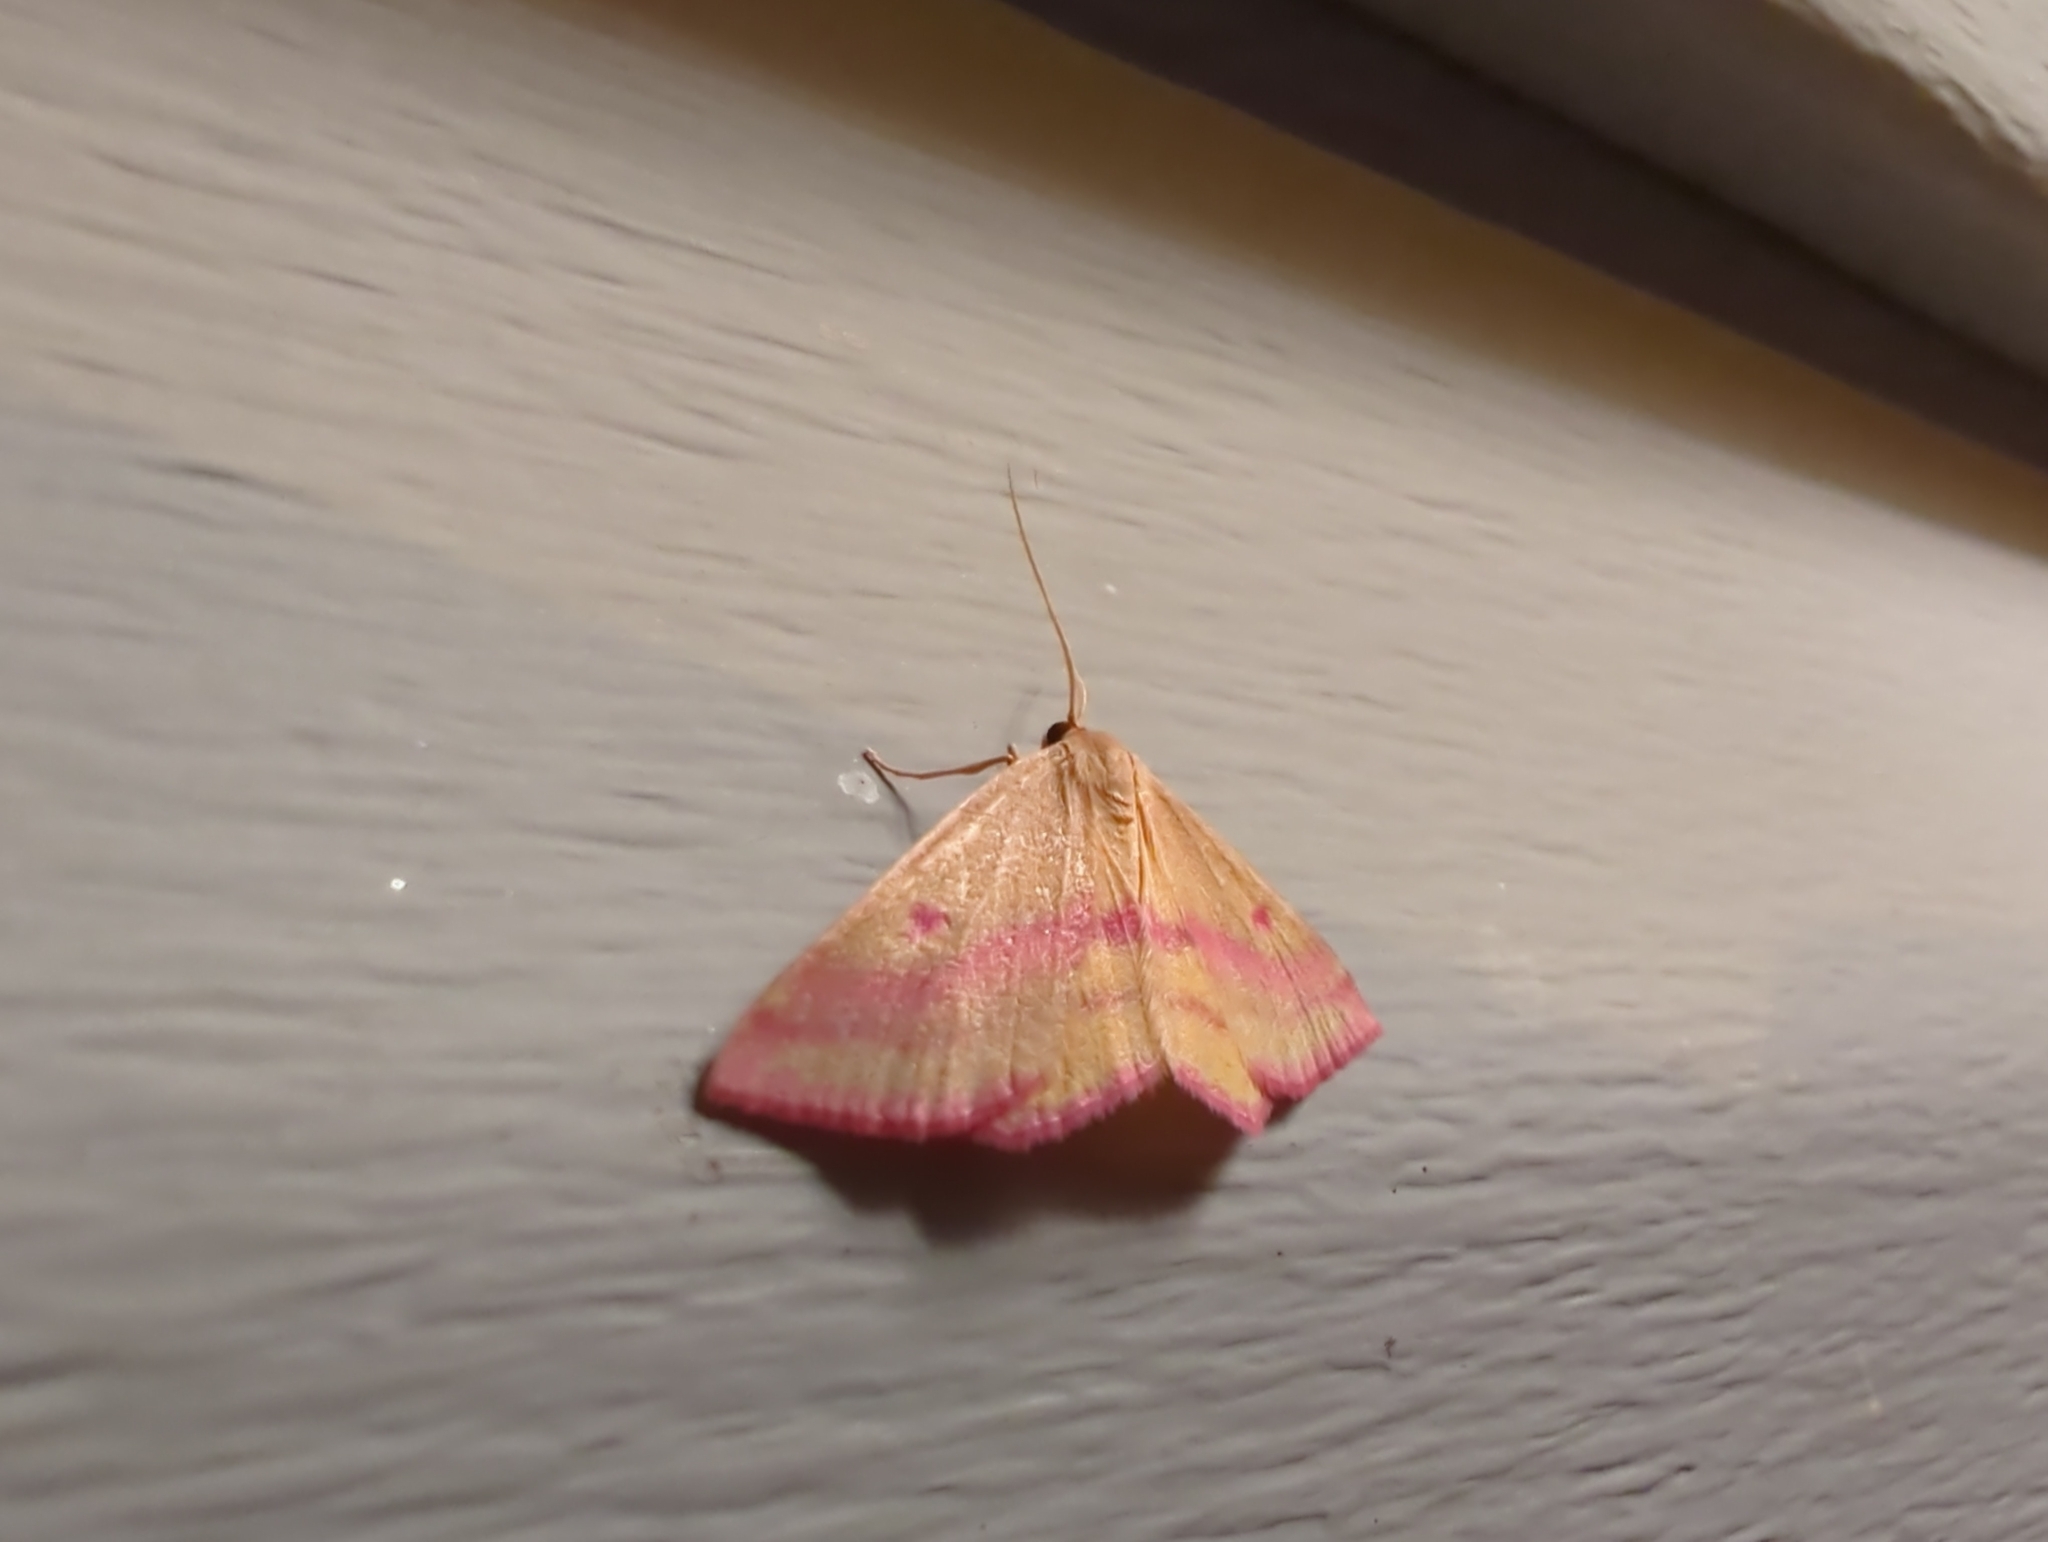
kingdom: Animalia
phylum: Arthropoda
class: Insecta
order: Lepidoptera
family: Geometridae
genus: Haematopis
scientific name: Haematopis grataria
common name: Chickweed geometer
